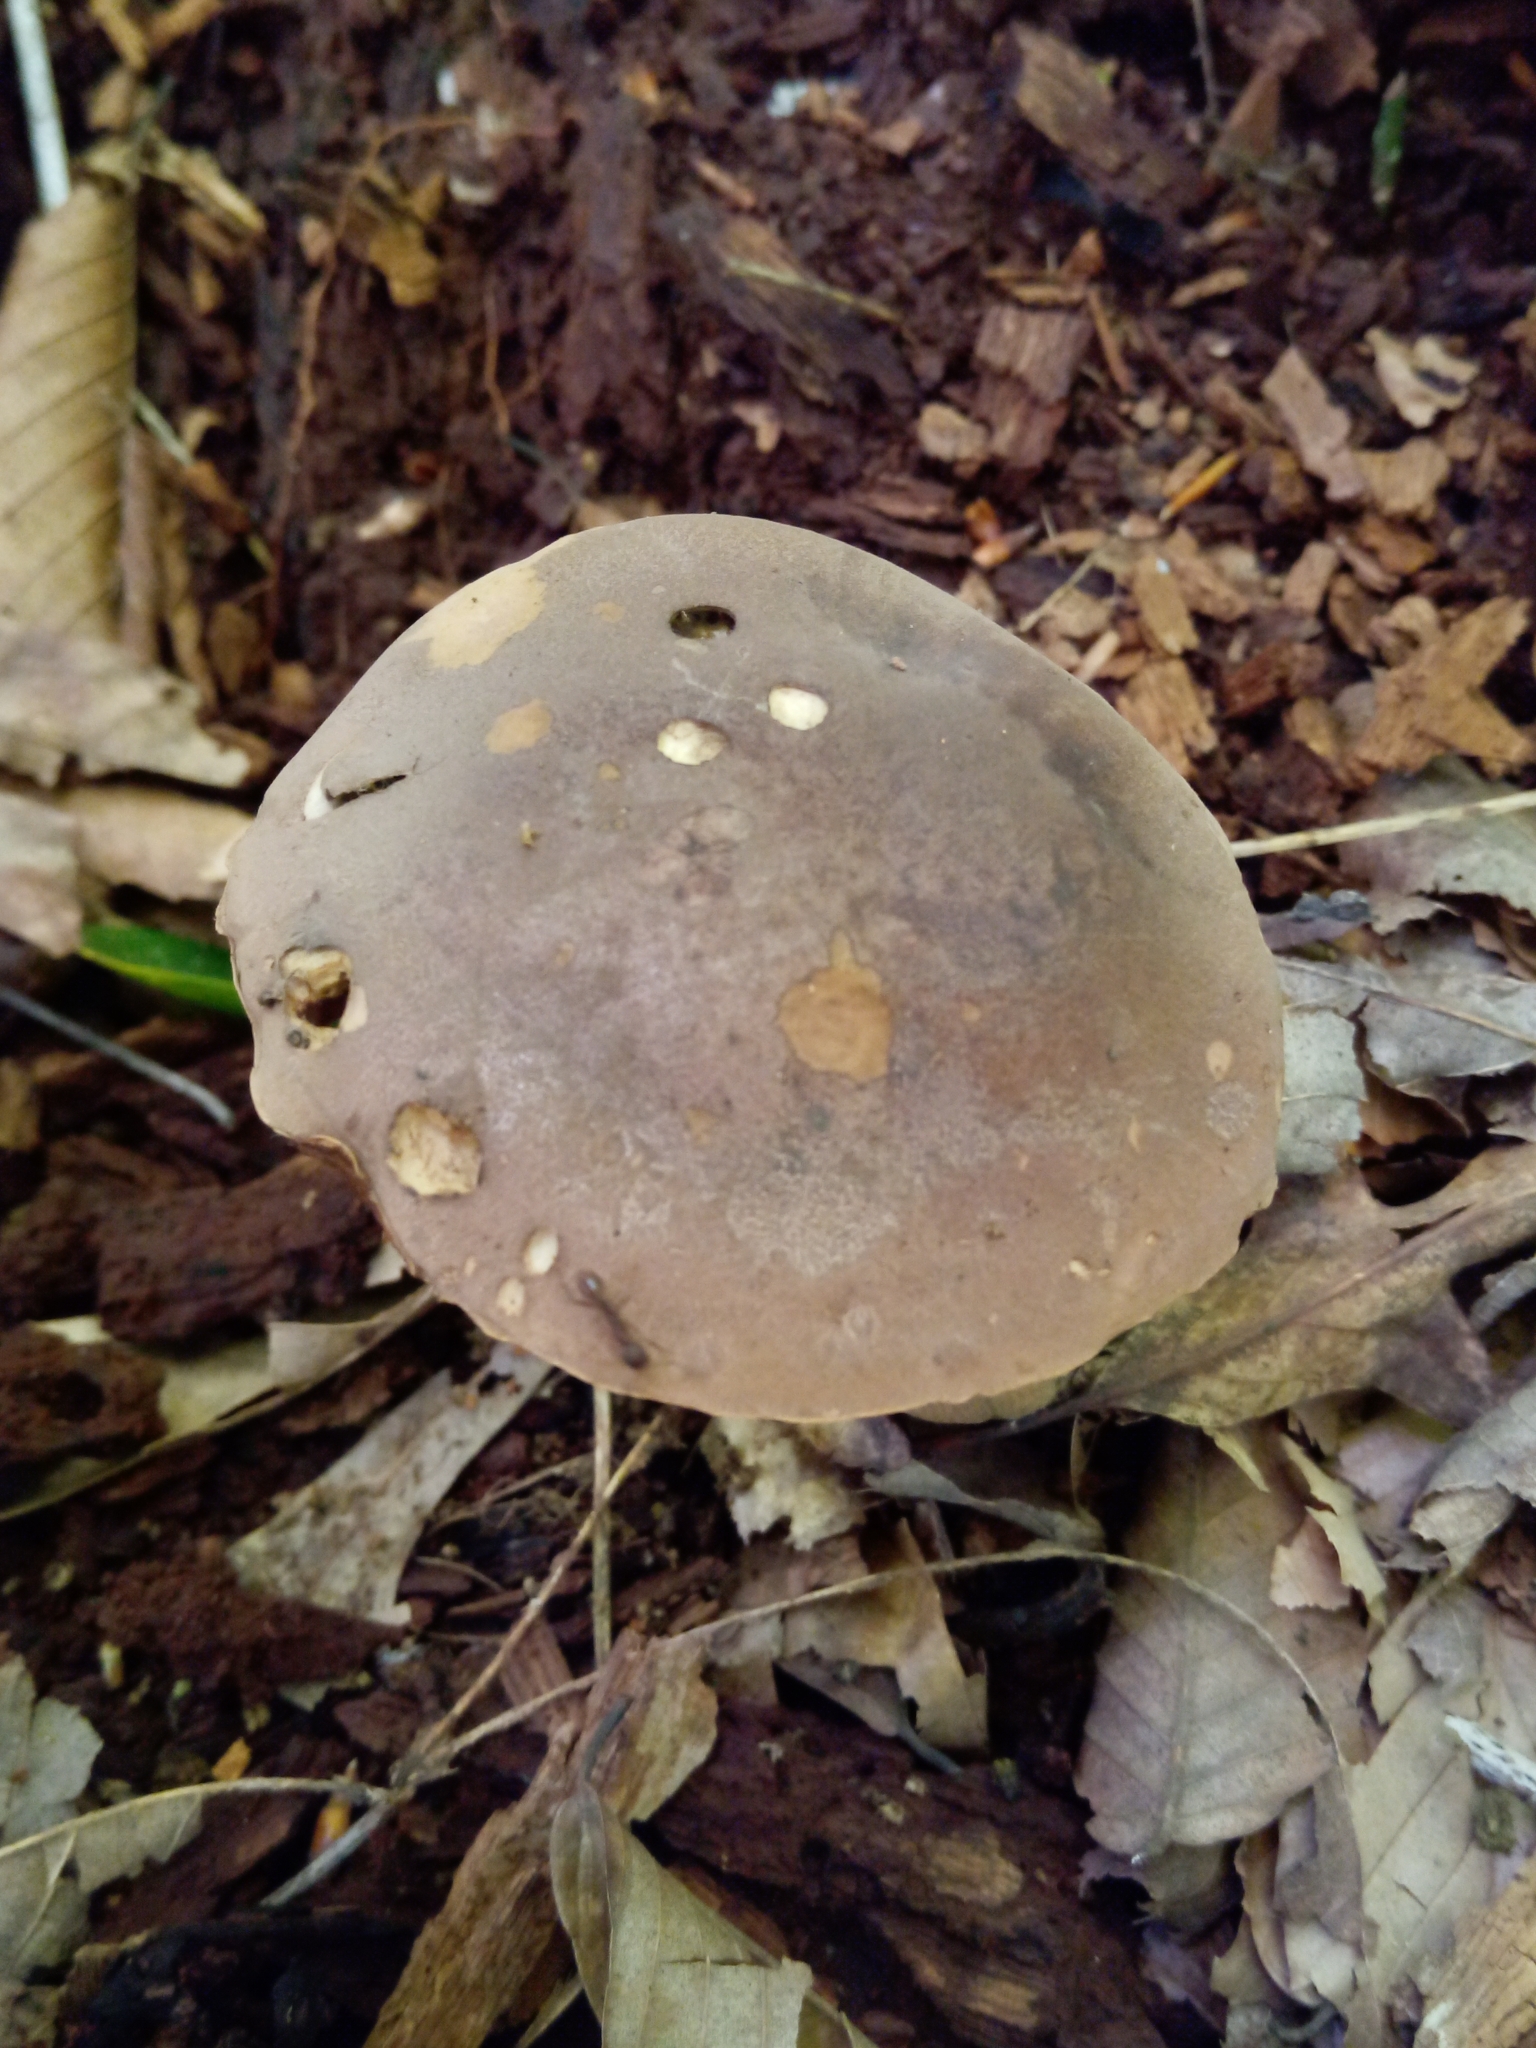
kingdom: Fungi
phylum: Basidiomycota
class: Agaricomycetes
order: Boletales
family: Boletaceae
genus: Tylopilus
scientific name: Tylopilus badiceps
